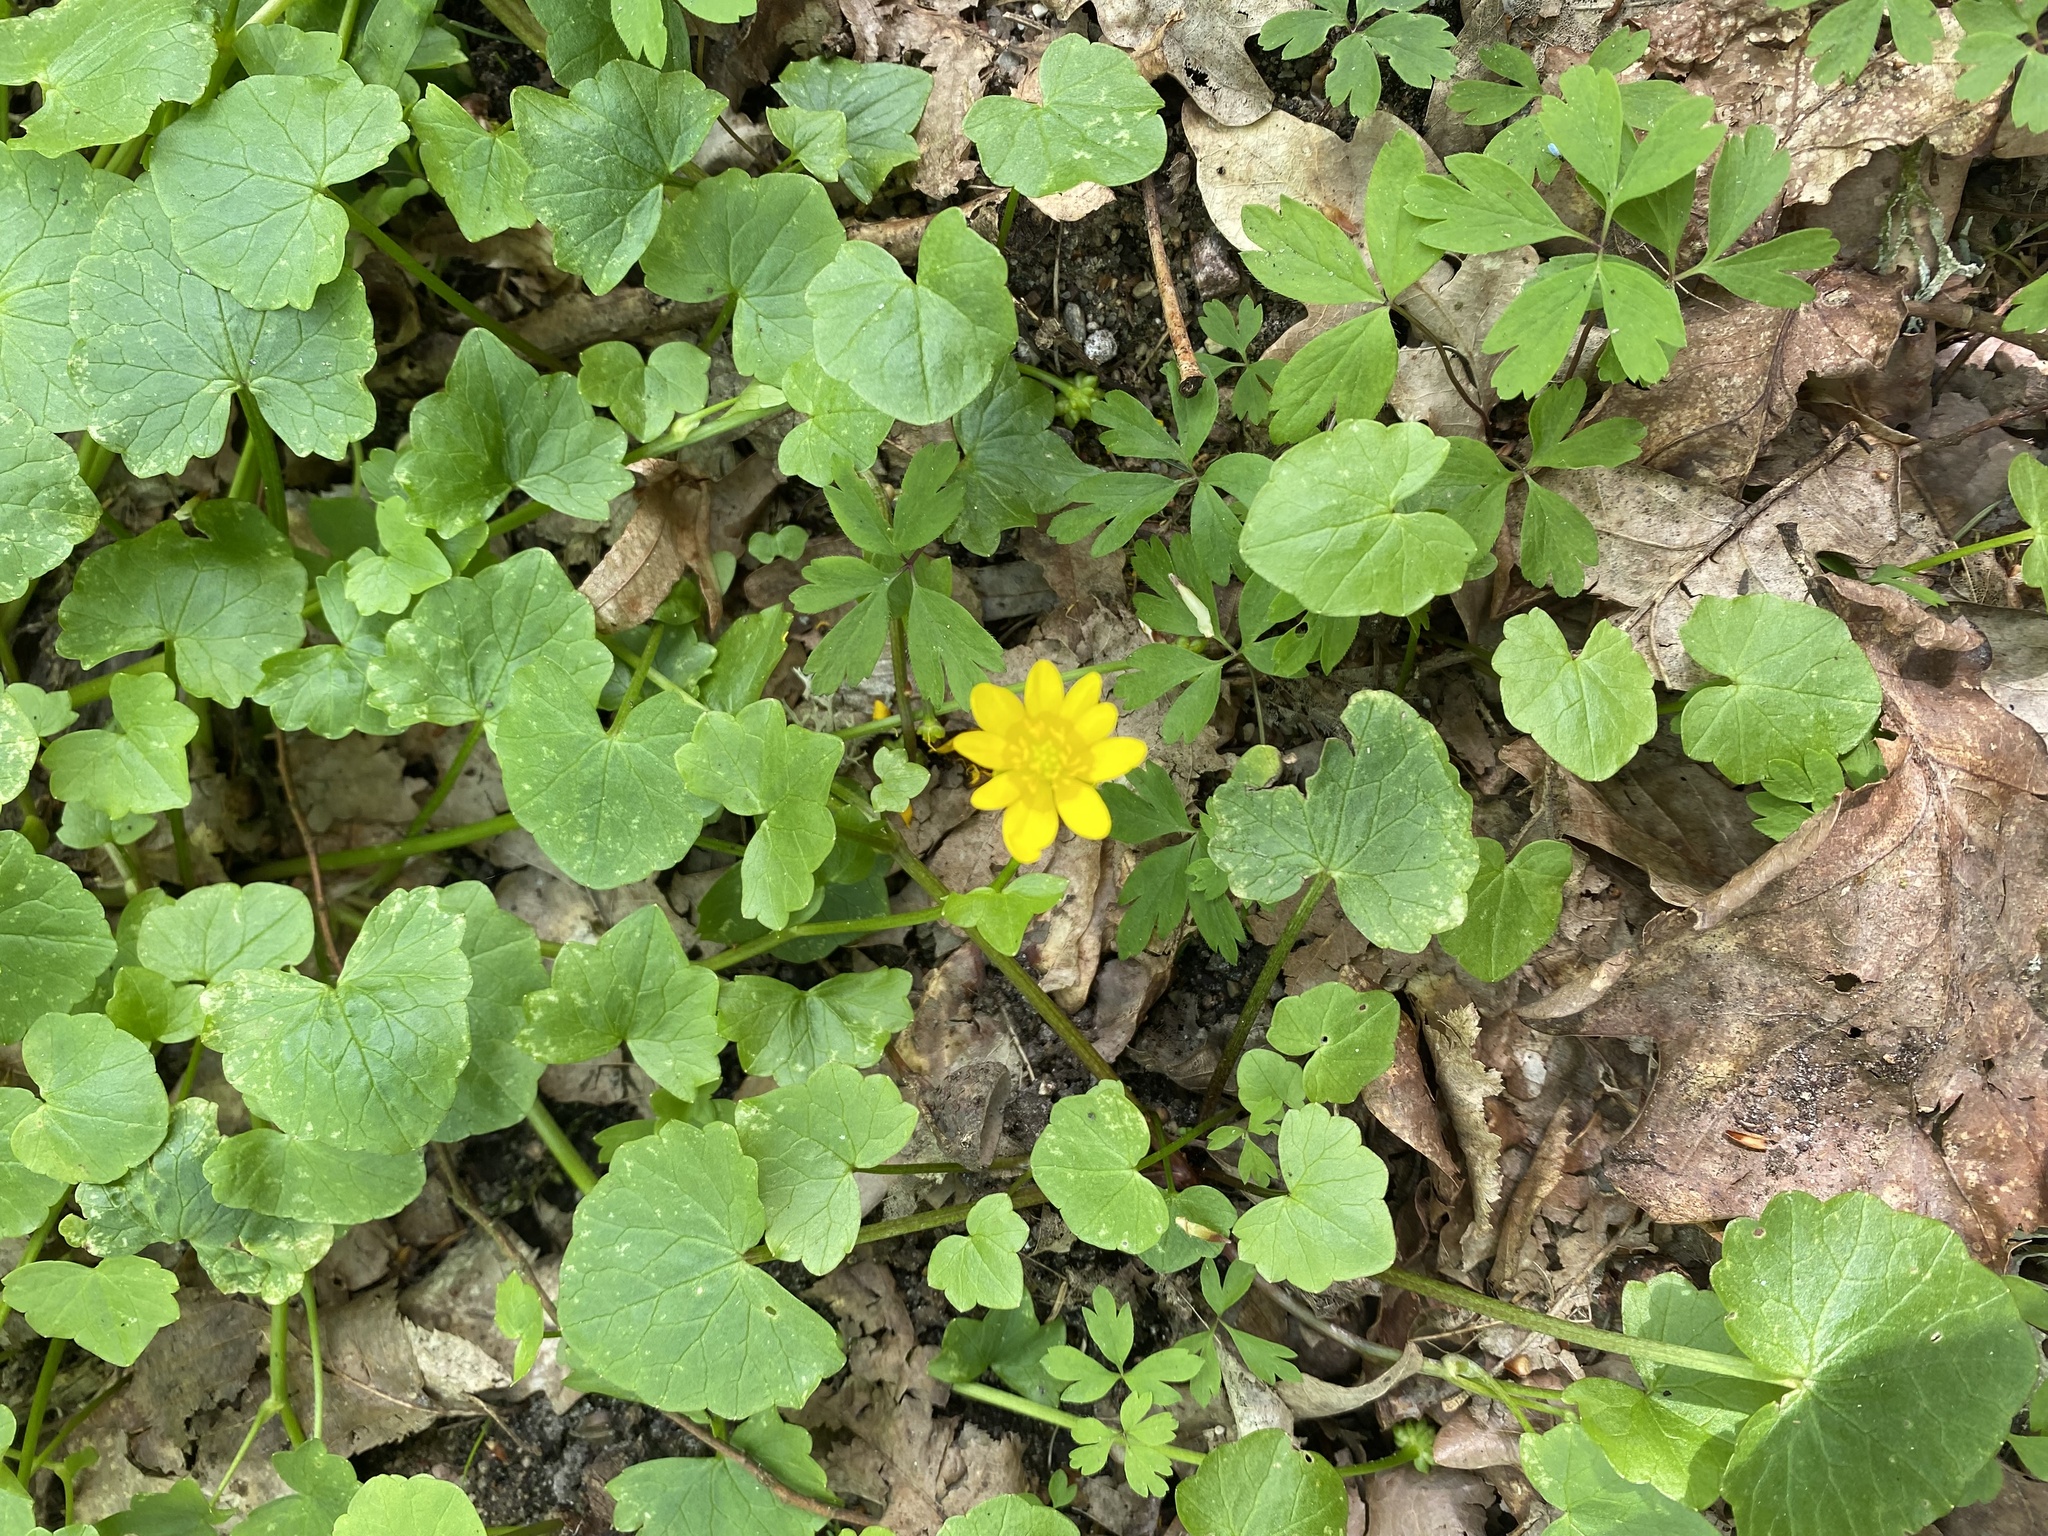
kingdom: Plantae
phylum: Tracheophyta
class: Magnoliopsida
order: Ranunculales
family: Ranunculaceae
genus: Ficaria
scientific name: Ficaria verna
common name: Lesser celandine
